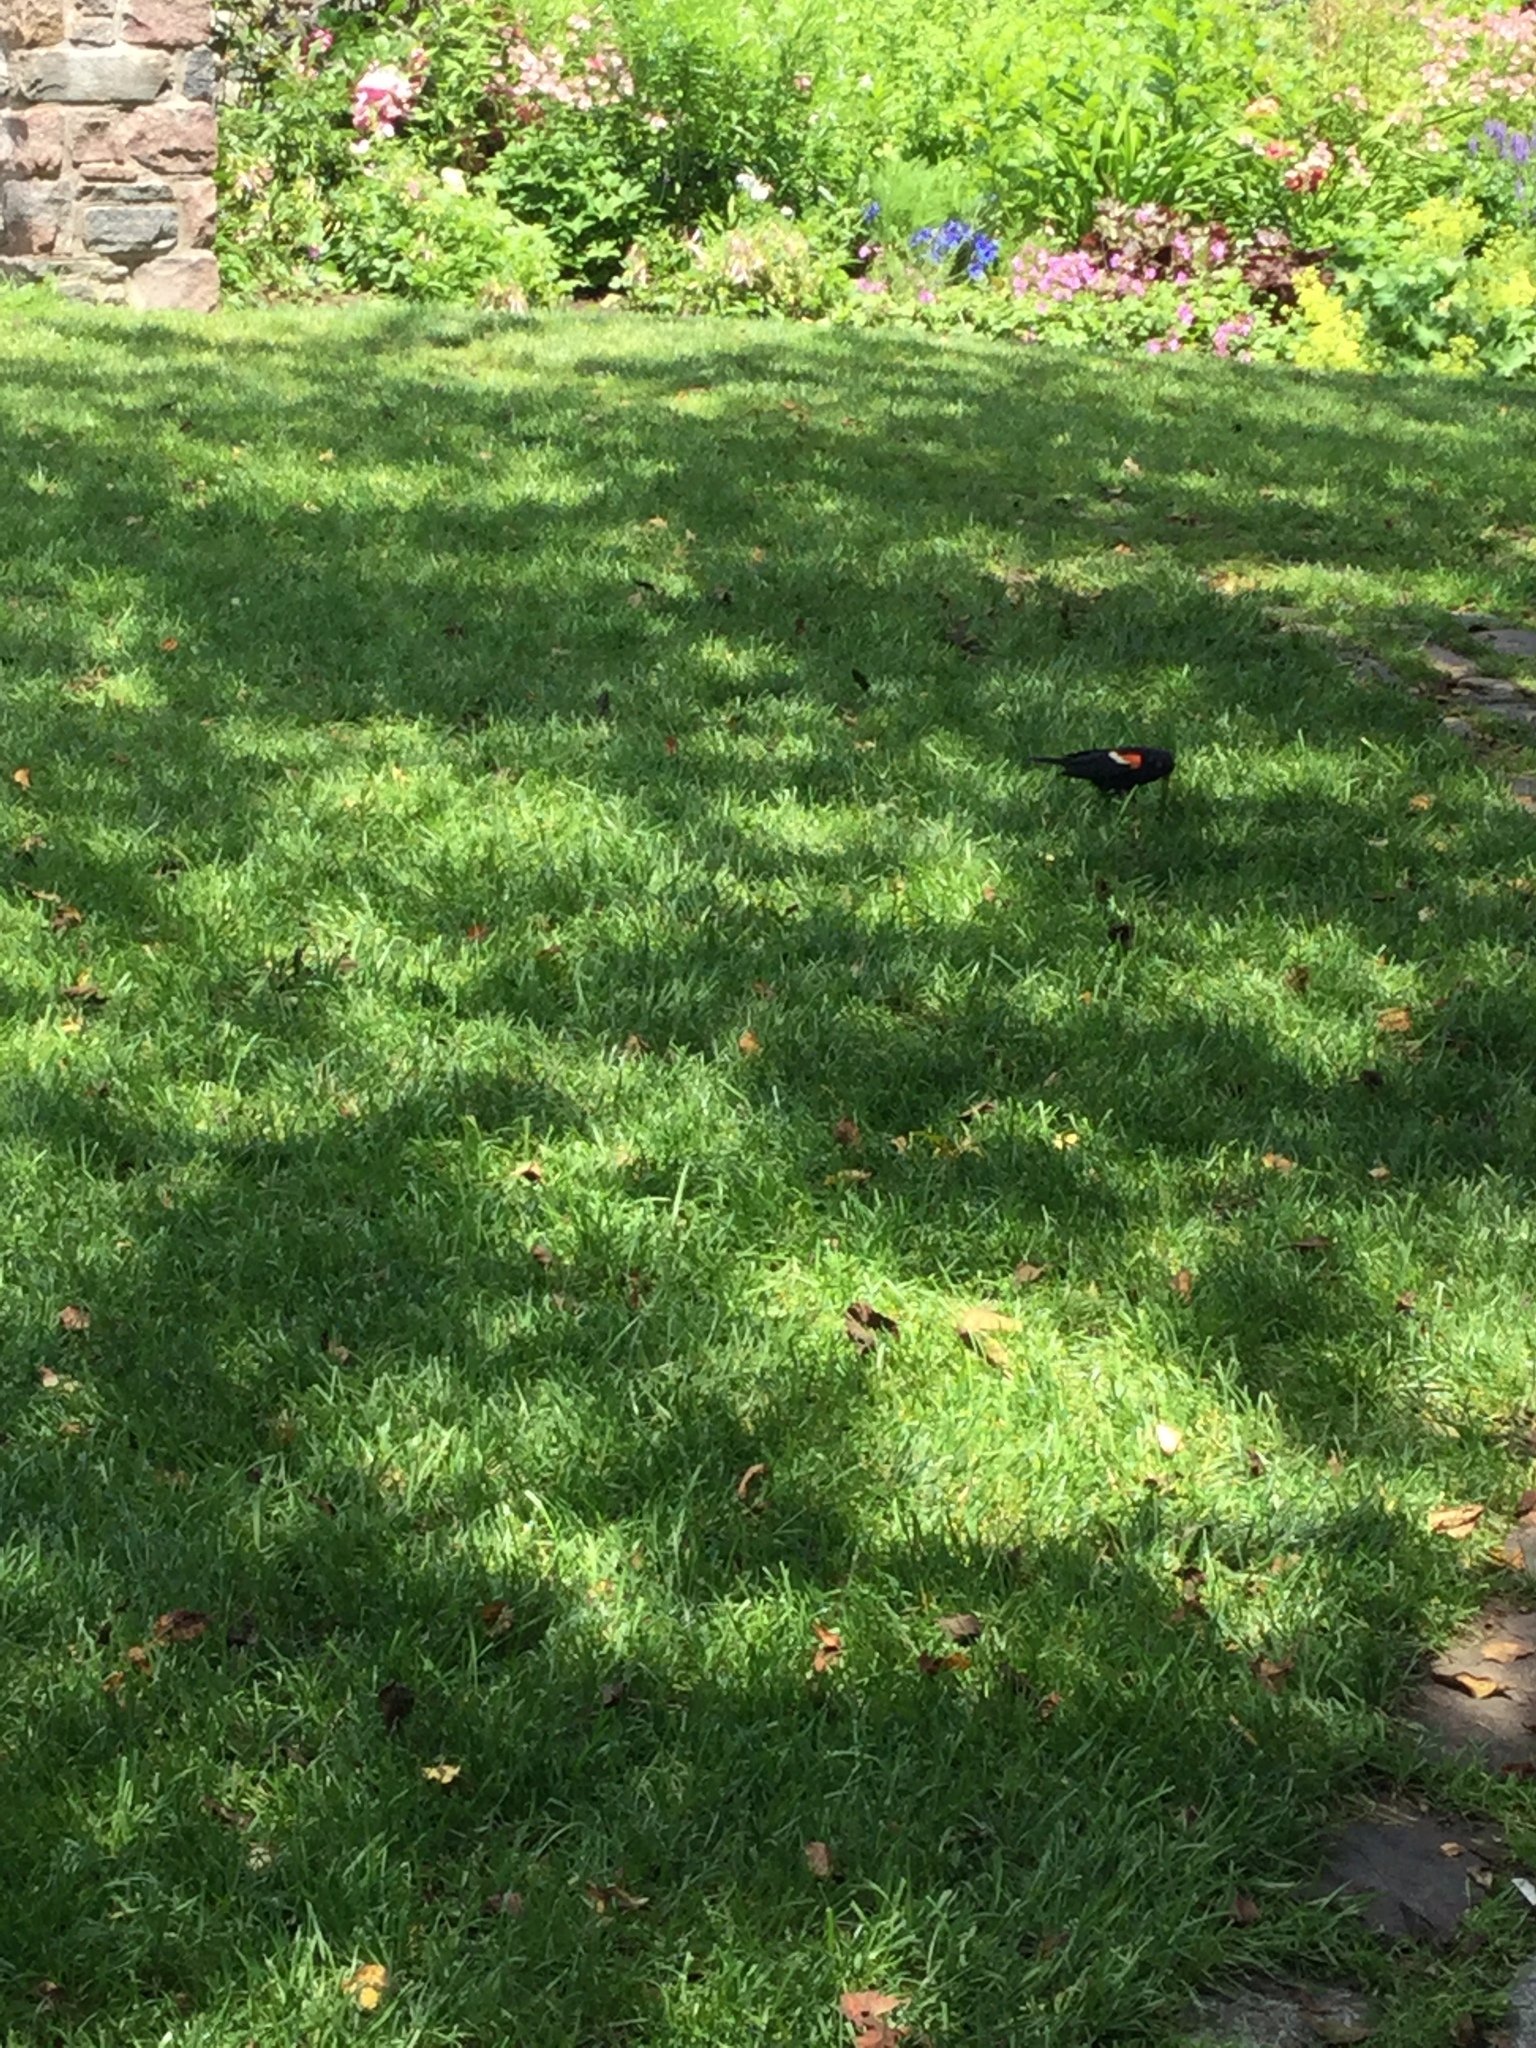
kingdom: Animalia
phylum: Chordata
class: Aves
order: Passeriformes
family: Icteridae
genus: Agelaius
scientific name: Agelaius phoeniceus
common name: Red-winged blackbird
